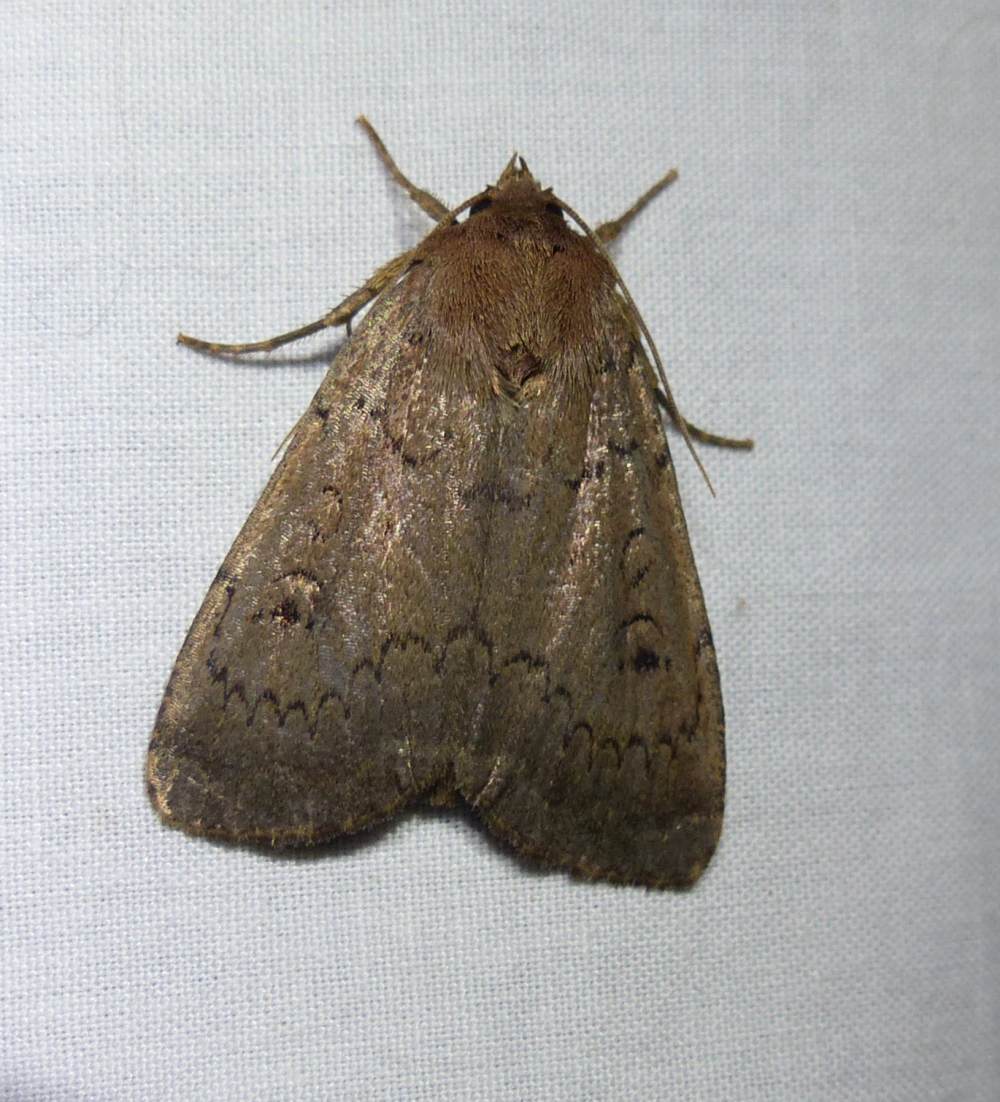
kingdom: Animalia
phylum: Arthropoda
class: Insecta
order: Lepidoptera
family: Noctuidae
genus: Graphiphora
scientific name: Graphiphora augur
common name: Double dart
